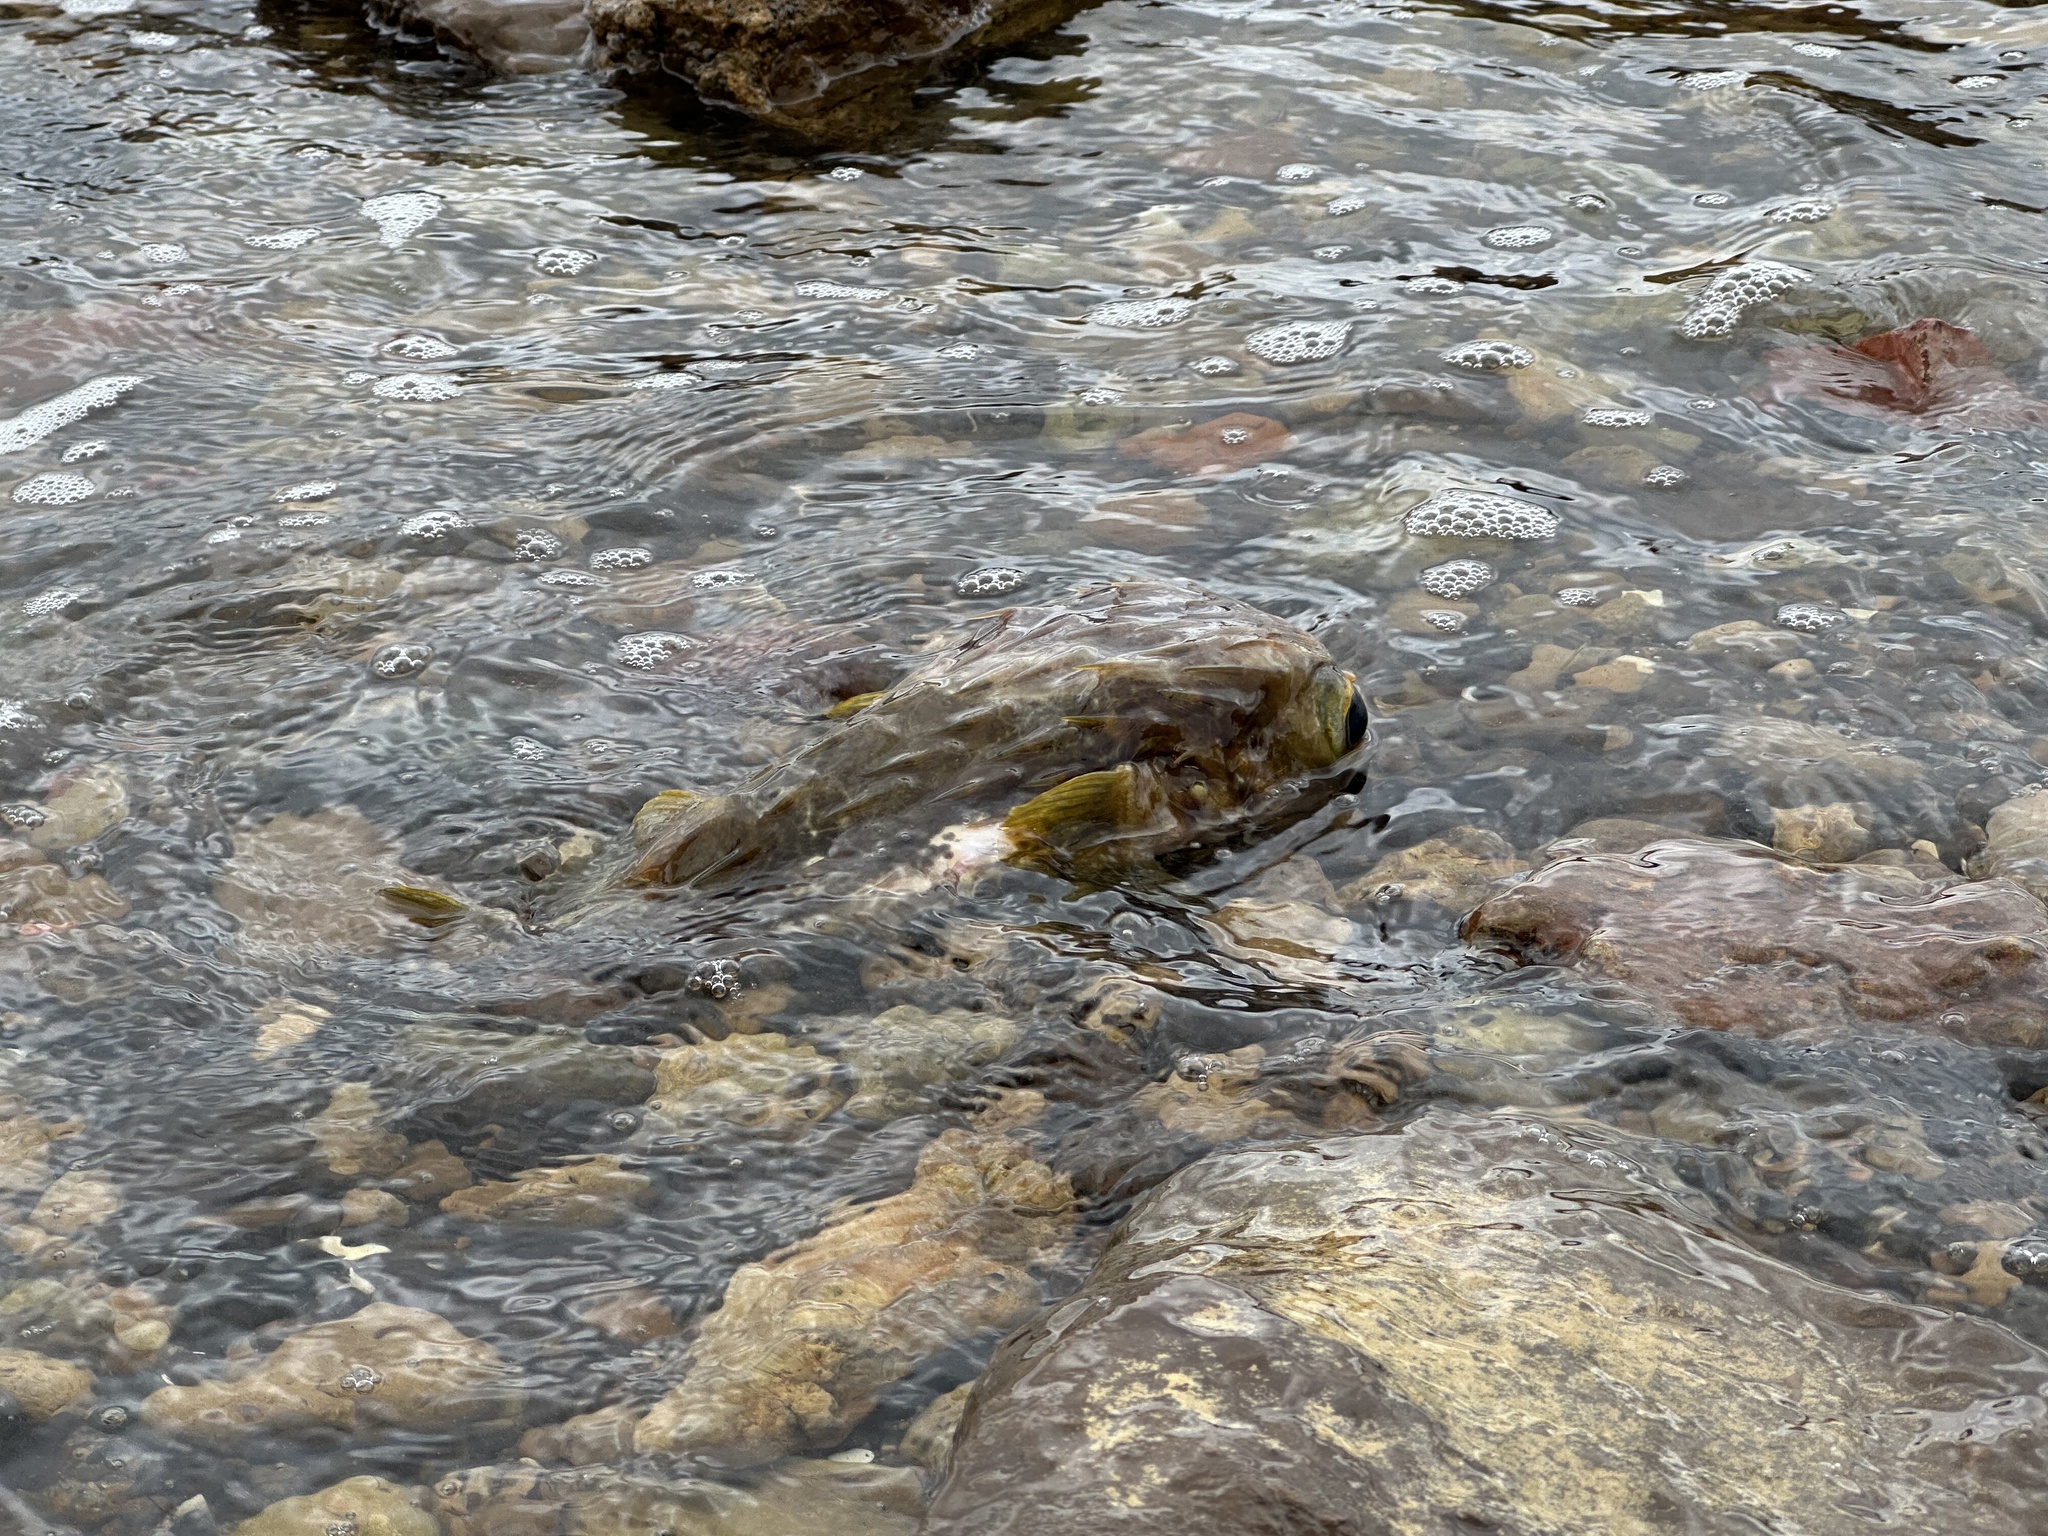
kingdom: Animalia
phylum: Chordata
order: Tetraodontiformes
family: Diodontidae
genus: Diodon
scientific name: Diodon nicthemerus
